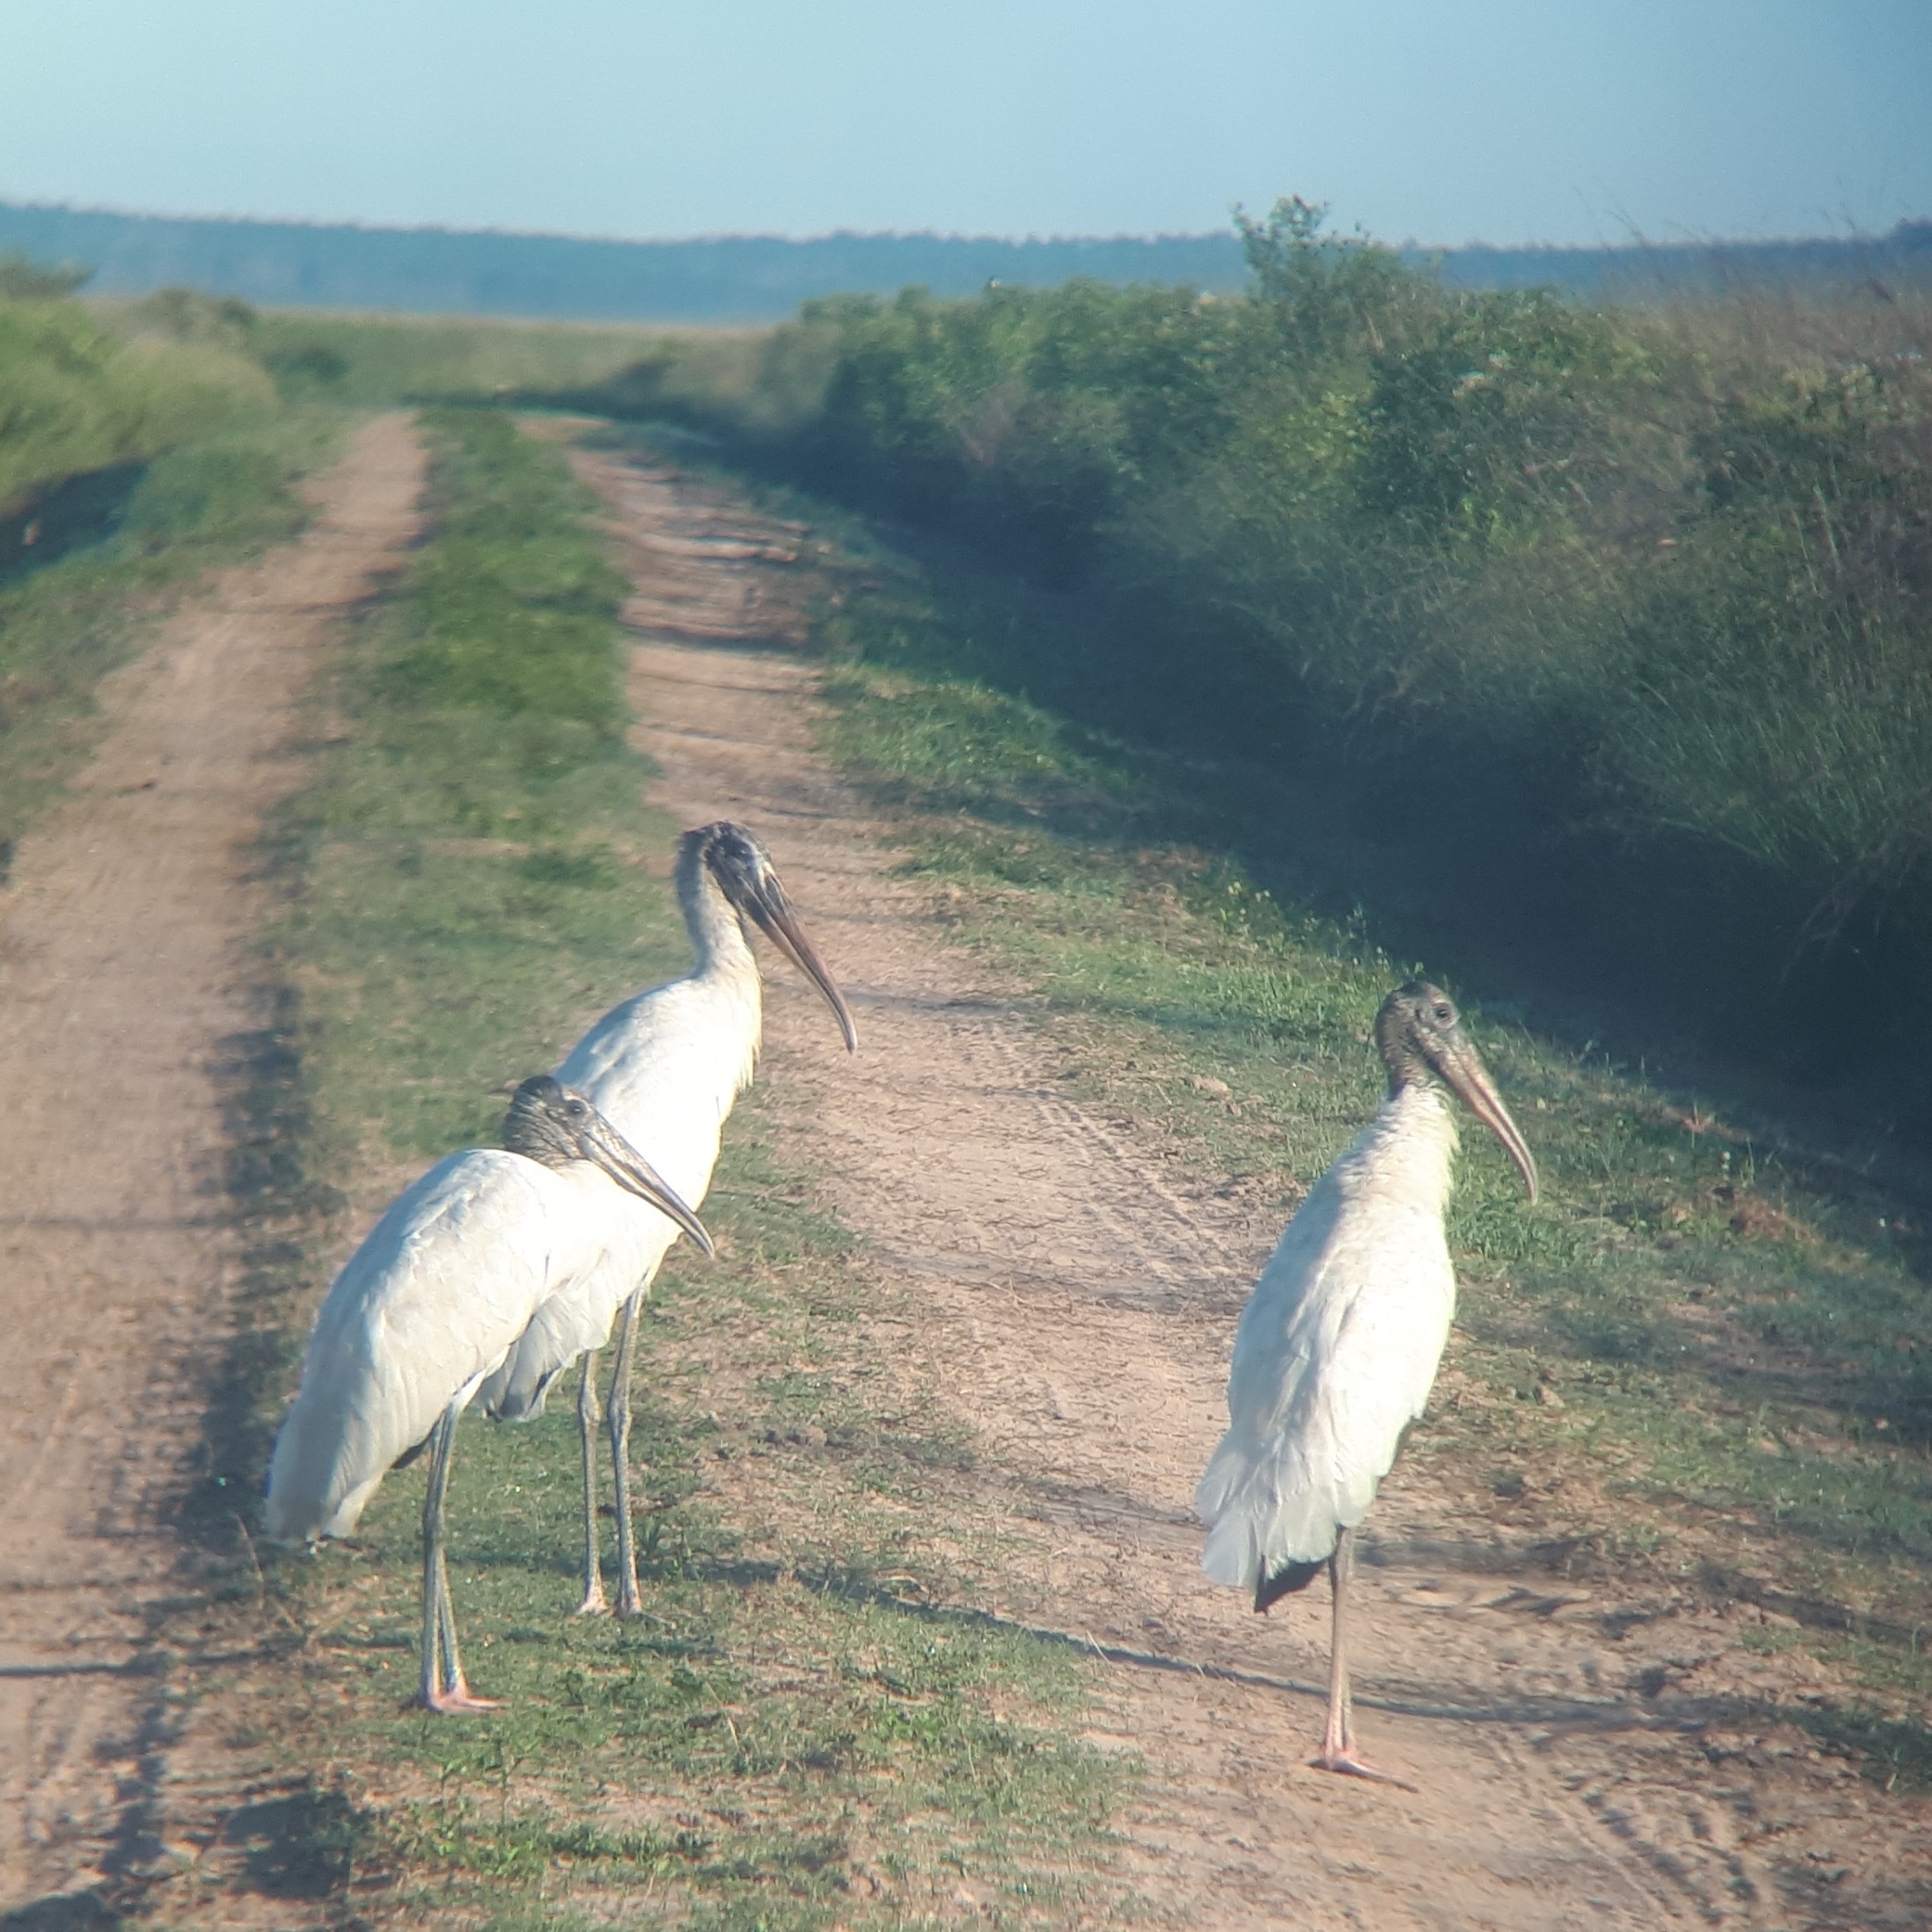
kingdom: Animalia
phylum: Chordata
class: Aves
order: Ciconiiformes
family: Ciconiidae
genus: Mycteria
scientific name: Mycteria americana
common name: Wood stork
